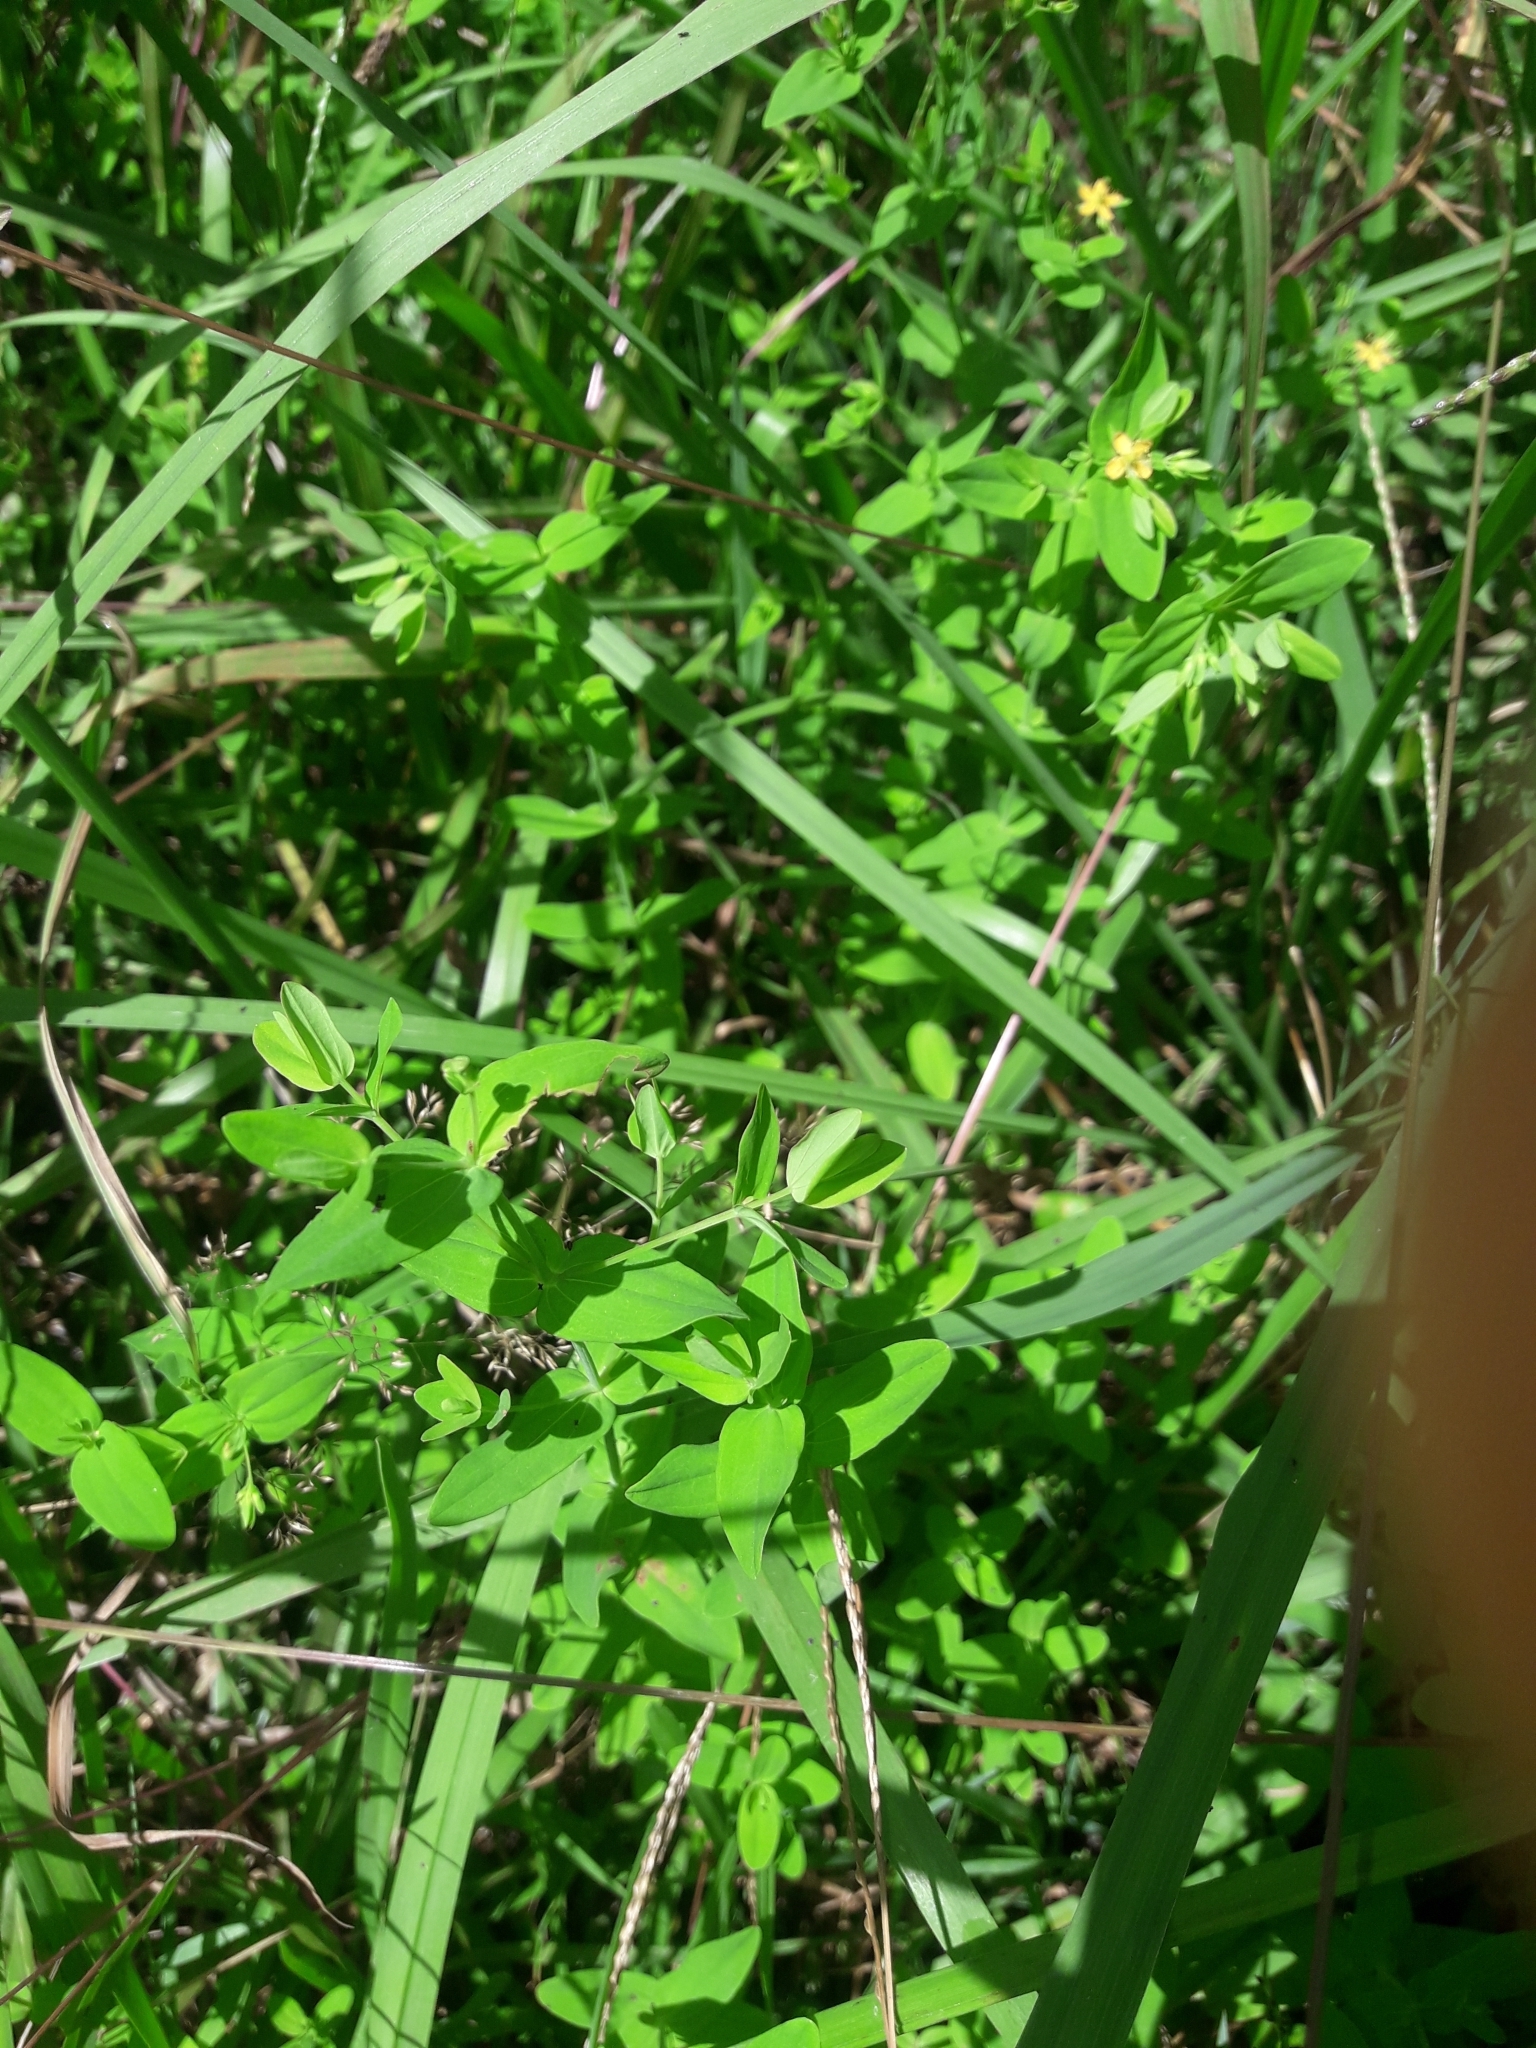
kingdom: Plantae
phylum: Tracheophyta
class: Magnoliopsida
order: Malpighiales
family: Hypericaceae
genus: Hypericum
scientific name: Hypericum mutilum
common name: Dwarf st. john's-wort
